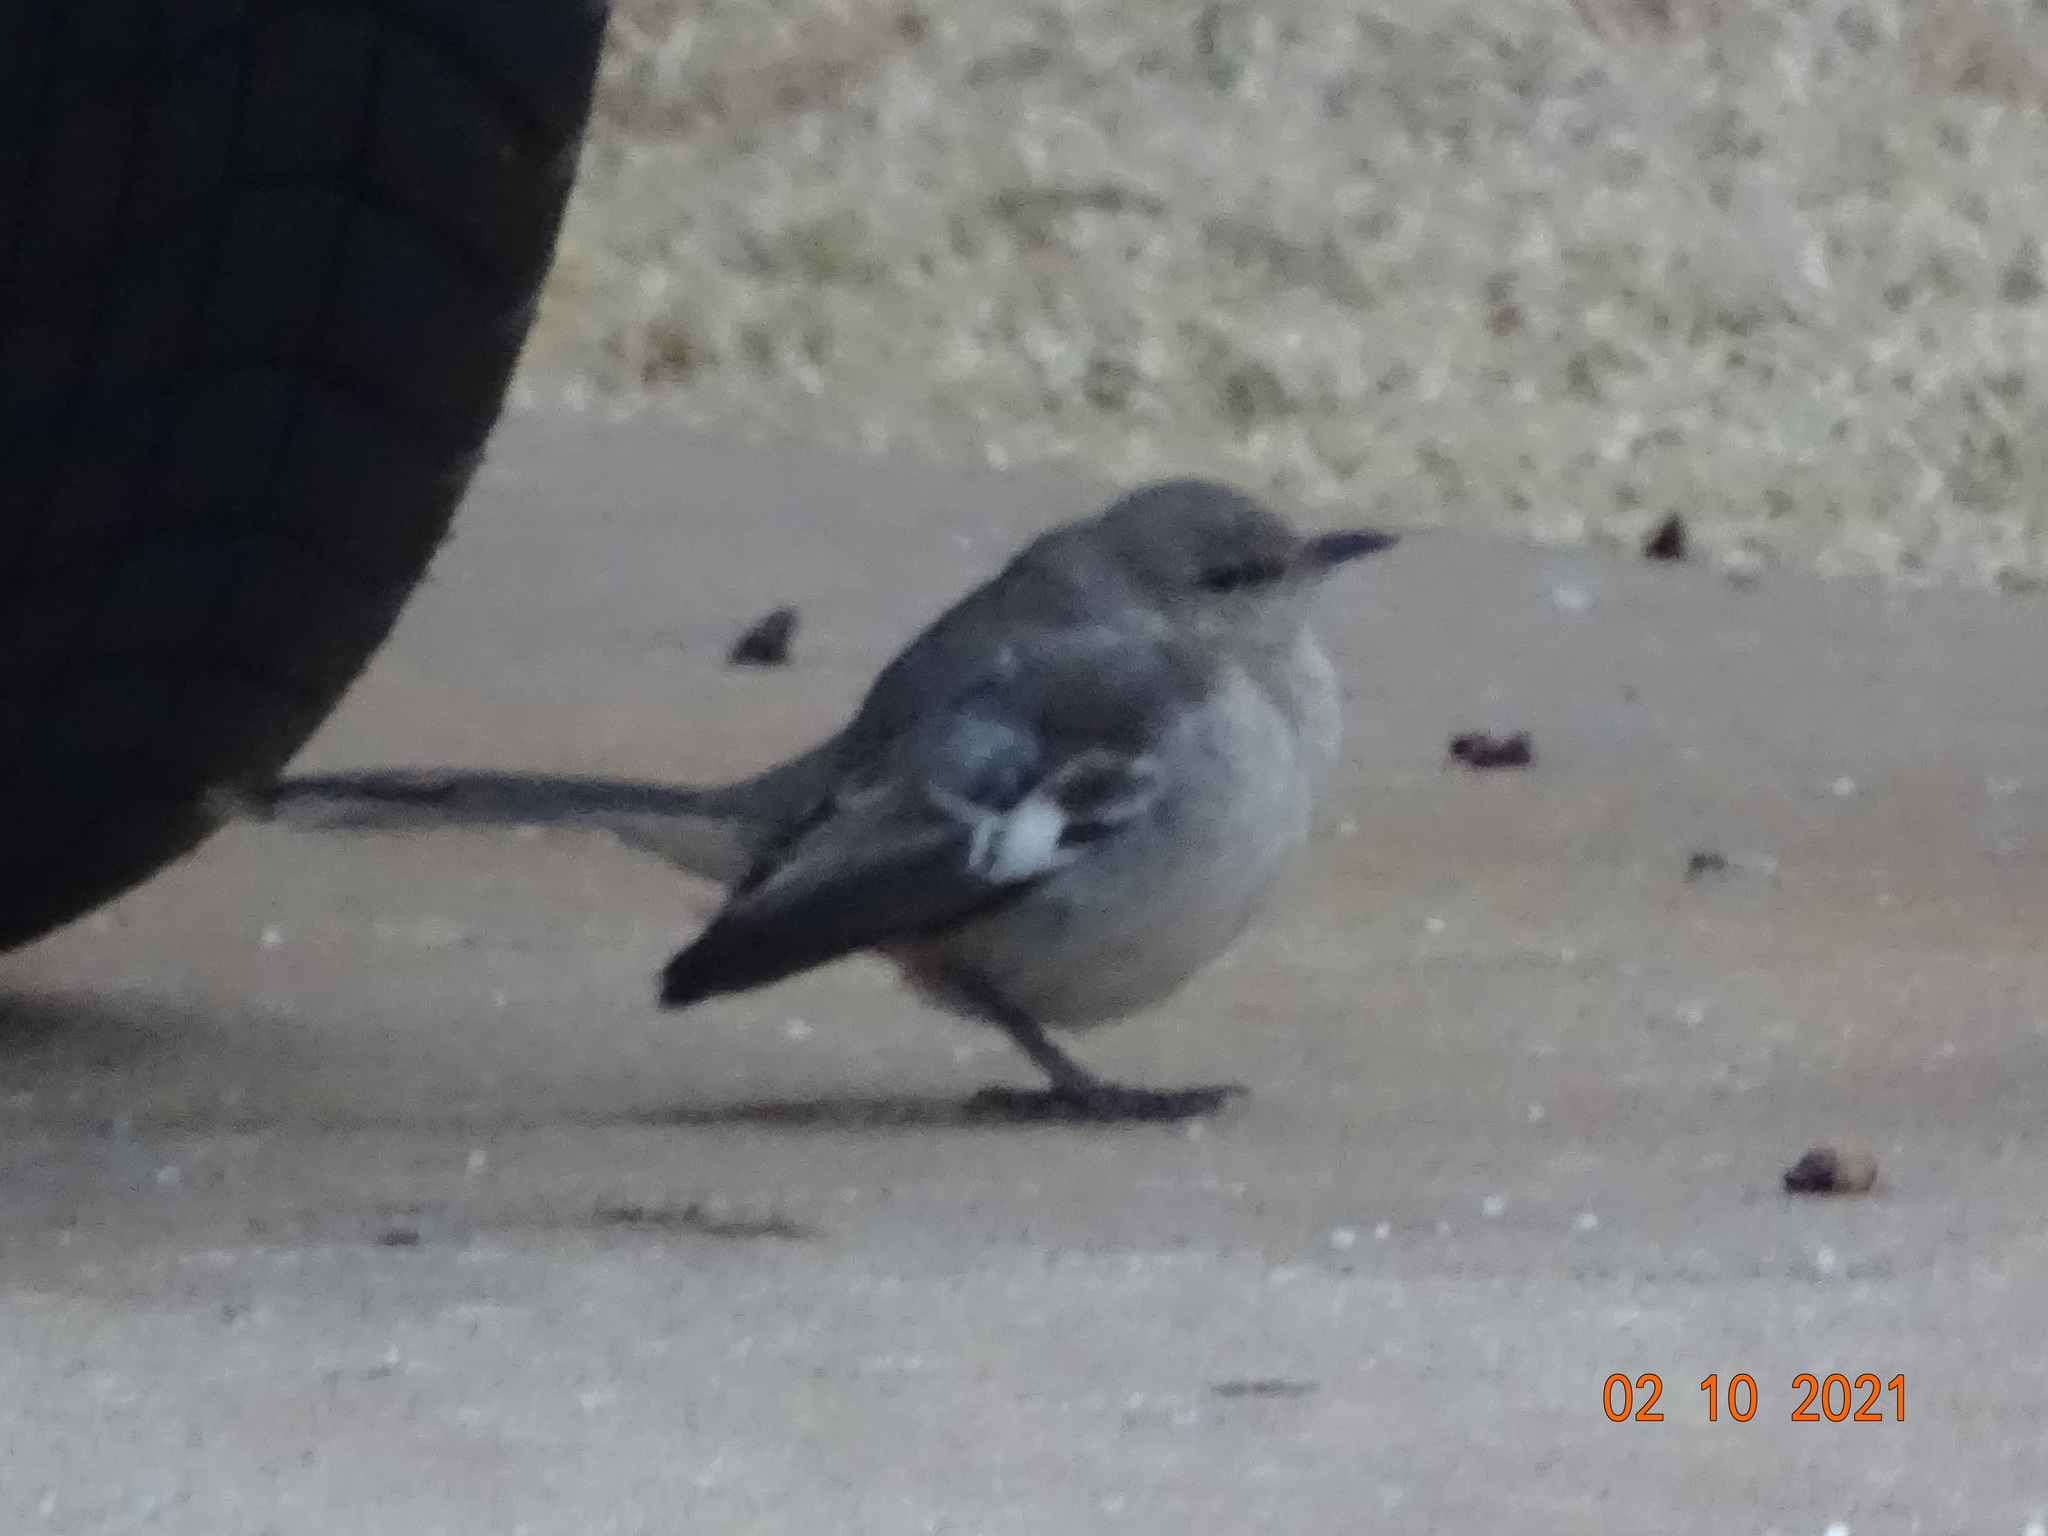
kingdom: Animalia
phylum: Chordata
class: Aves
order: Passeriformes
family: Mimidae
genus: Mimus
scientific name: Mimus polyglottos
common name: Northern mockingbird
